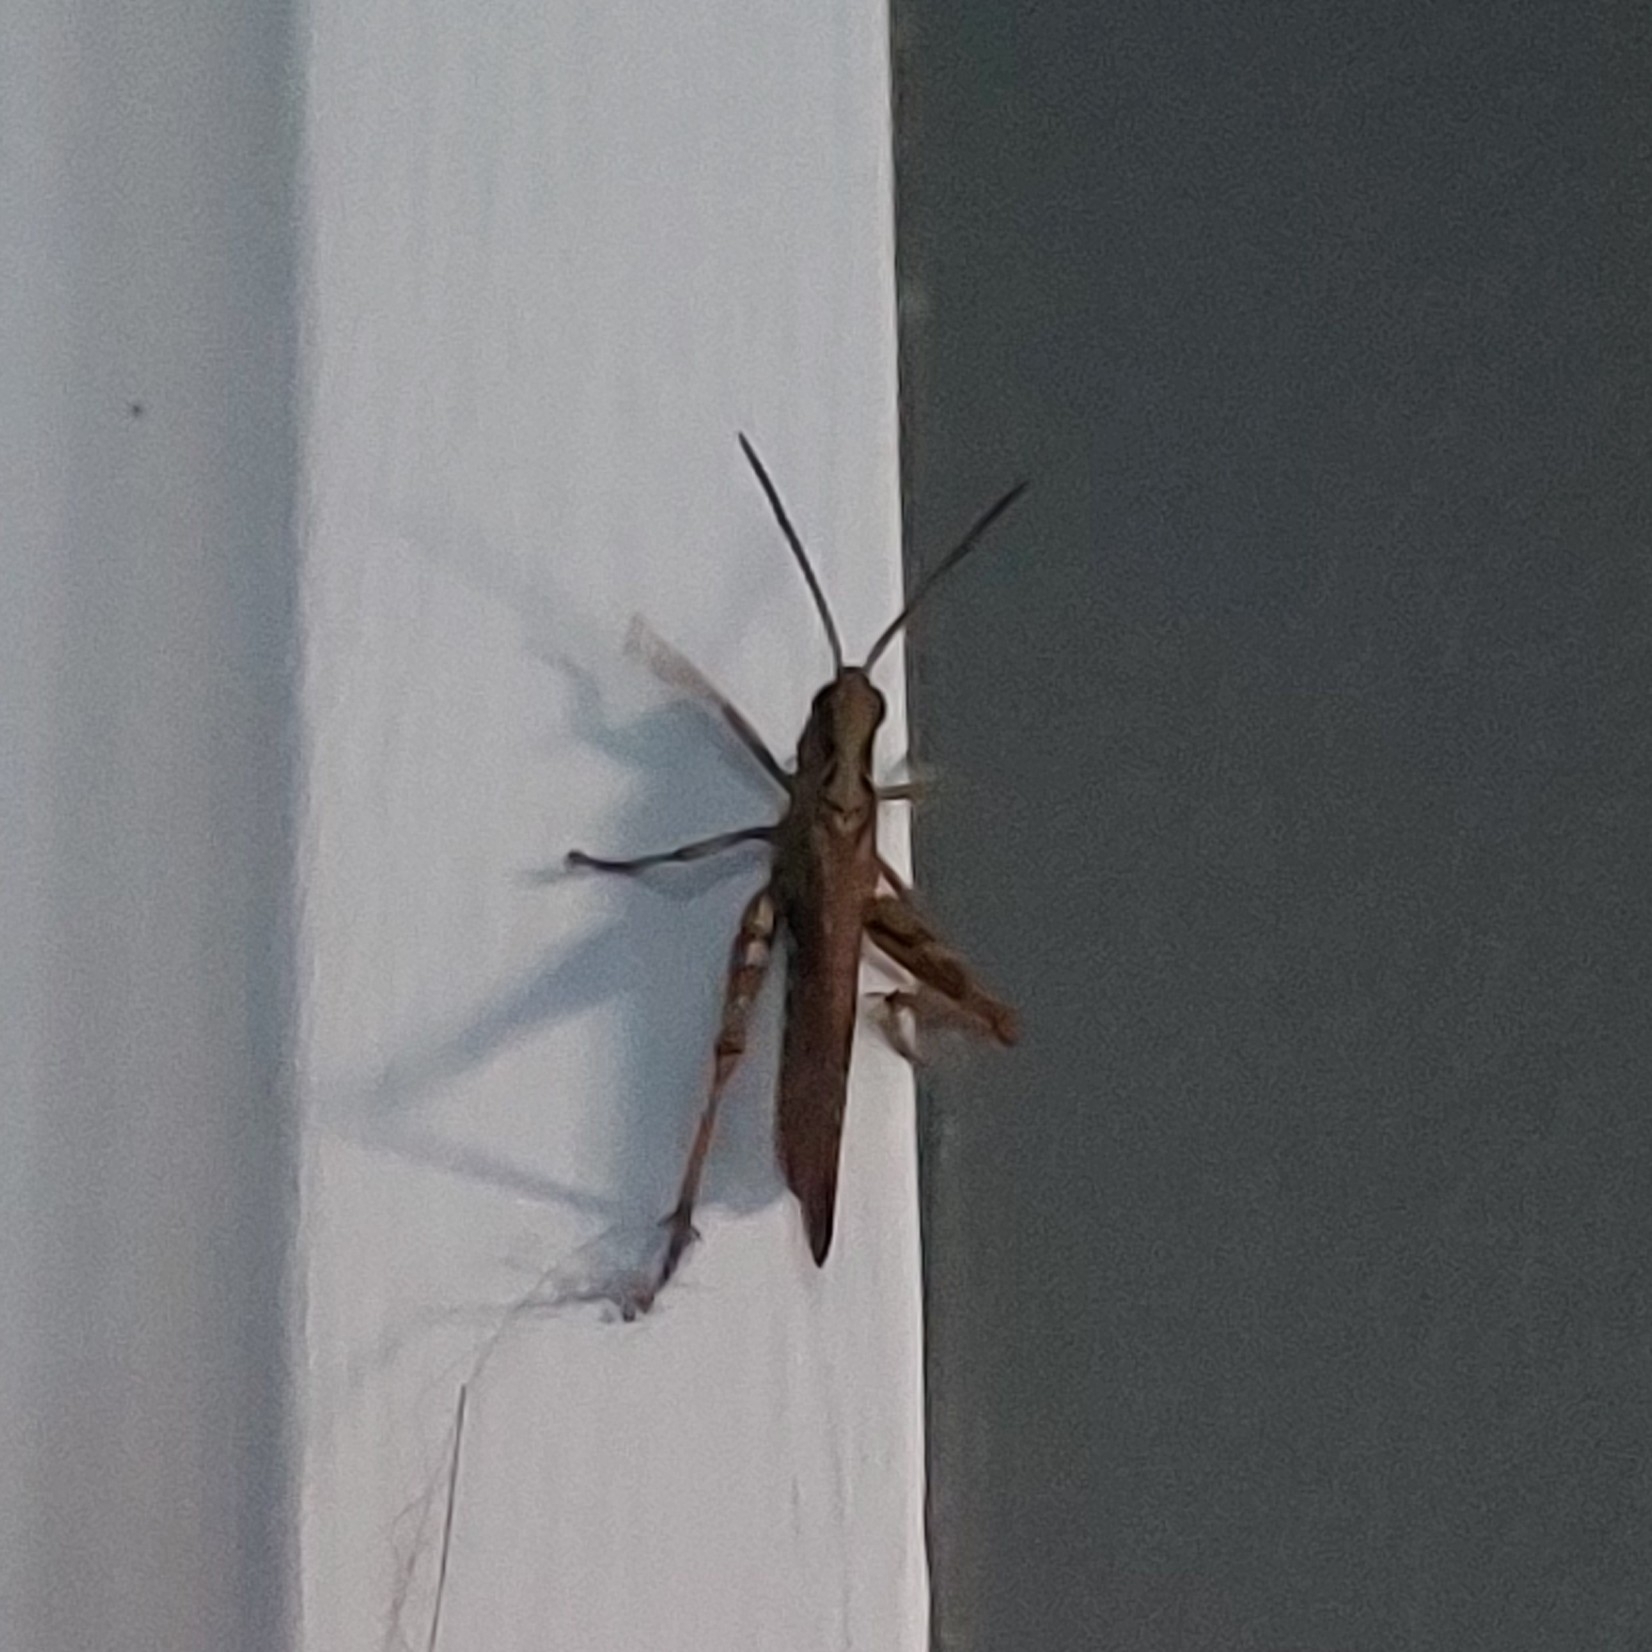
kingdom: Animalia
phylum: Arthropoda
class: Insecta
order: Orthoptera
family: Acrididae
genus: Chorthippus
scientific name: Chorthippus brunneus
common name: Field grasshopper
